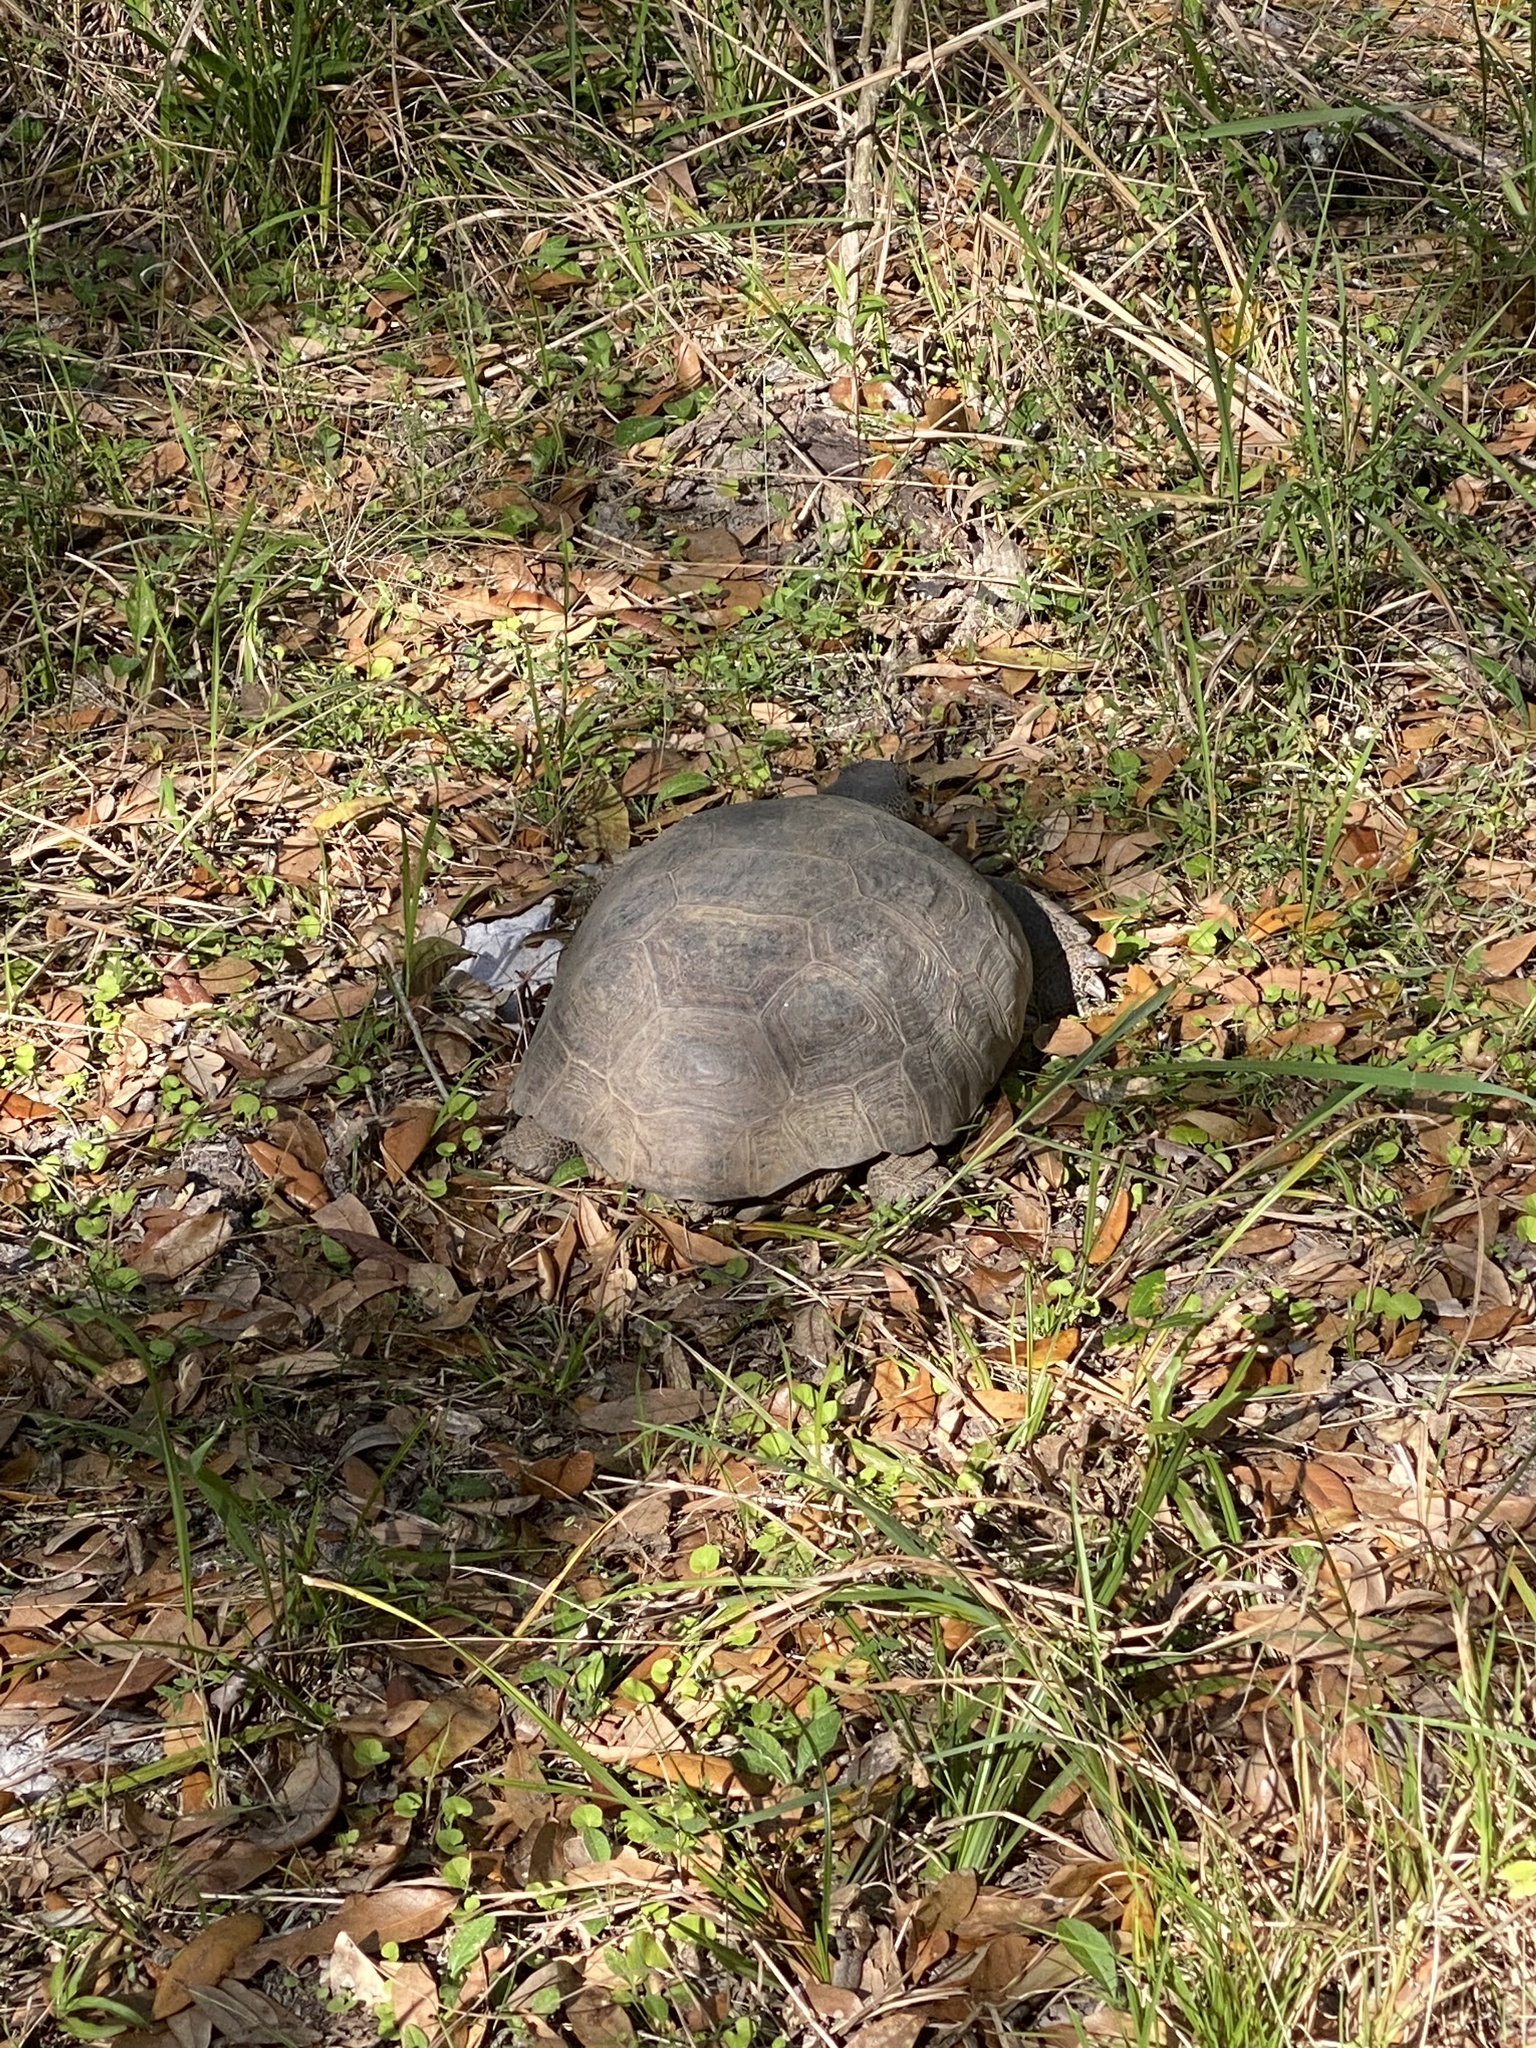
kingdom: Animalia
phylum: Chordata
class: Testudines
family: Testudinidae
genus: Gopherus
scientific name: Gopherus polyphemus
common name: Florida gopher tortoise
